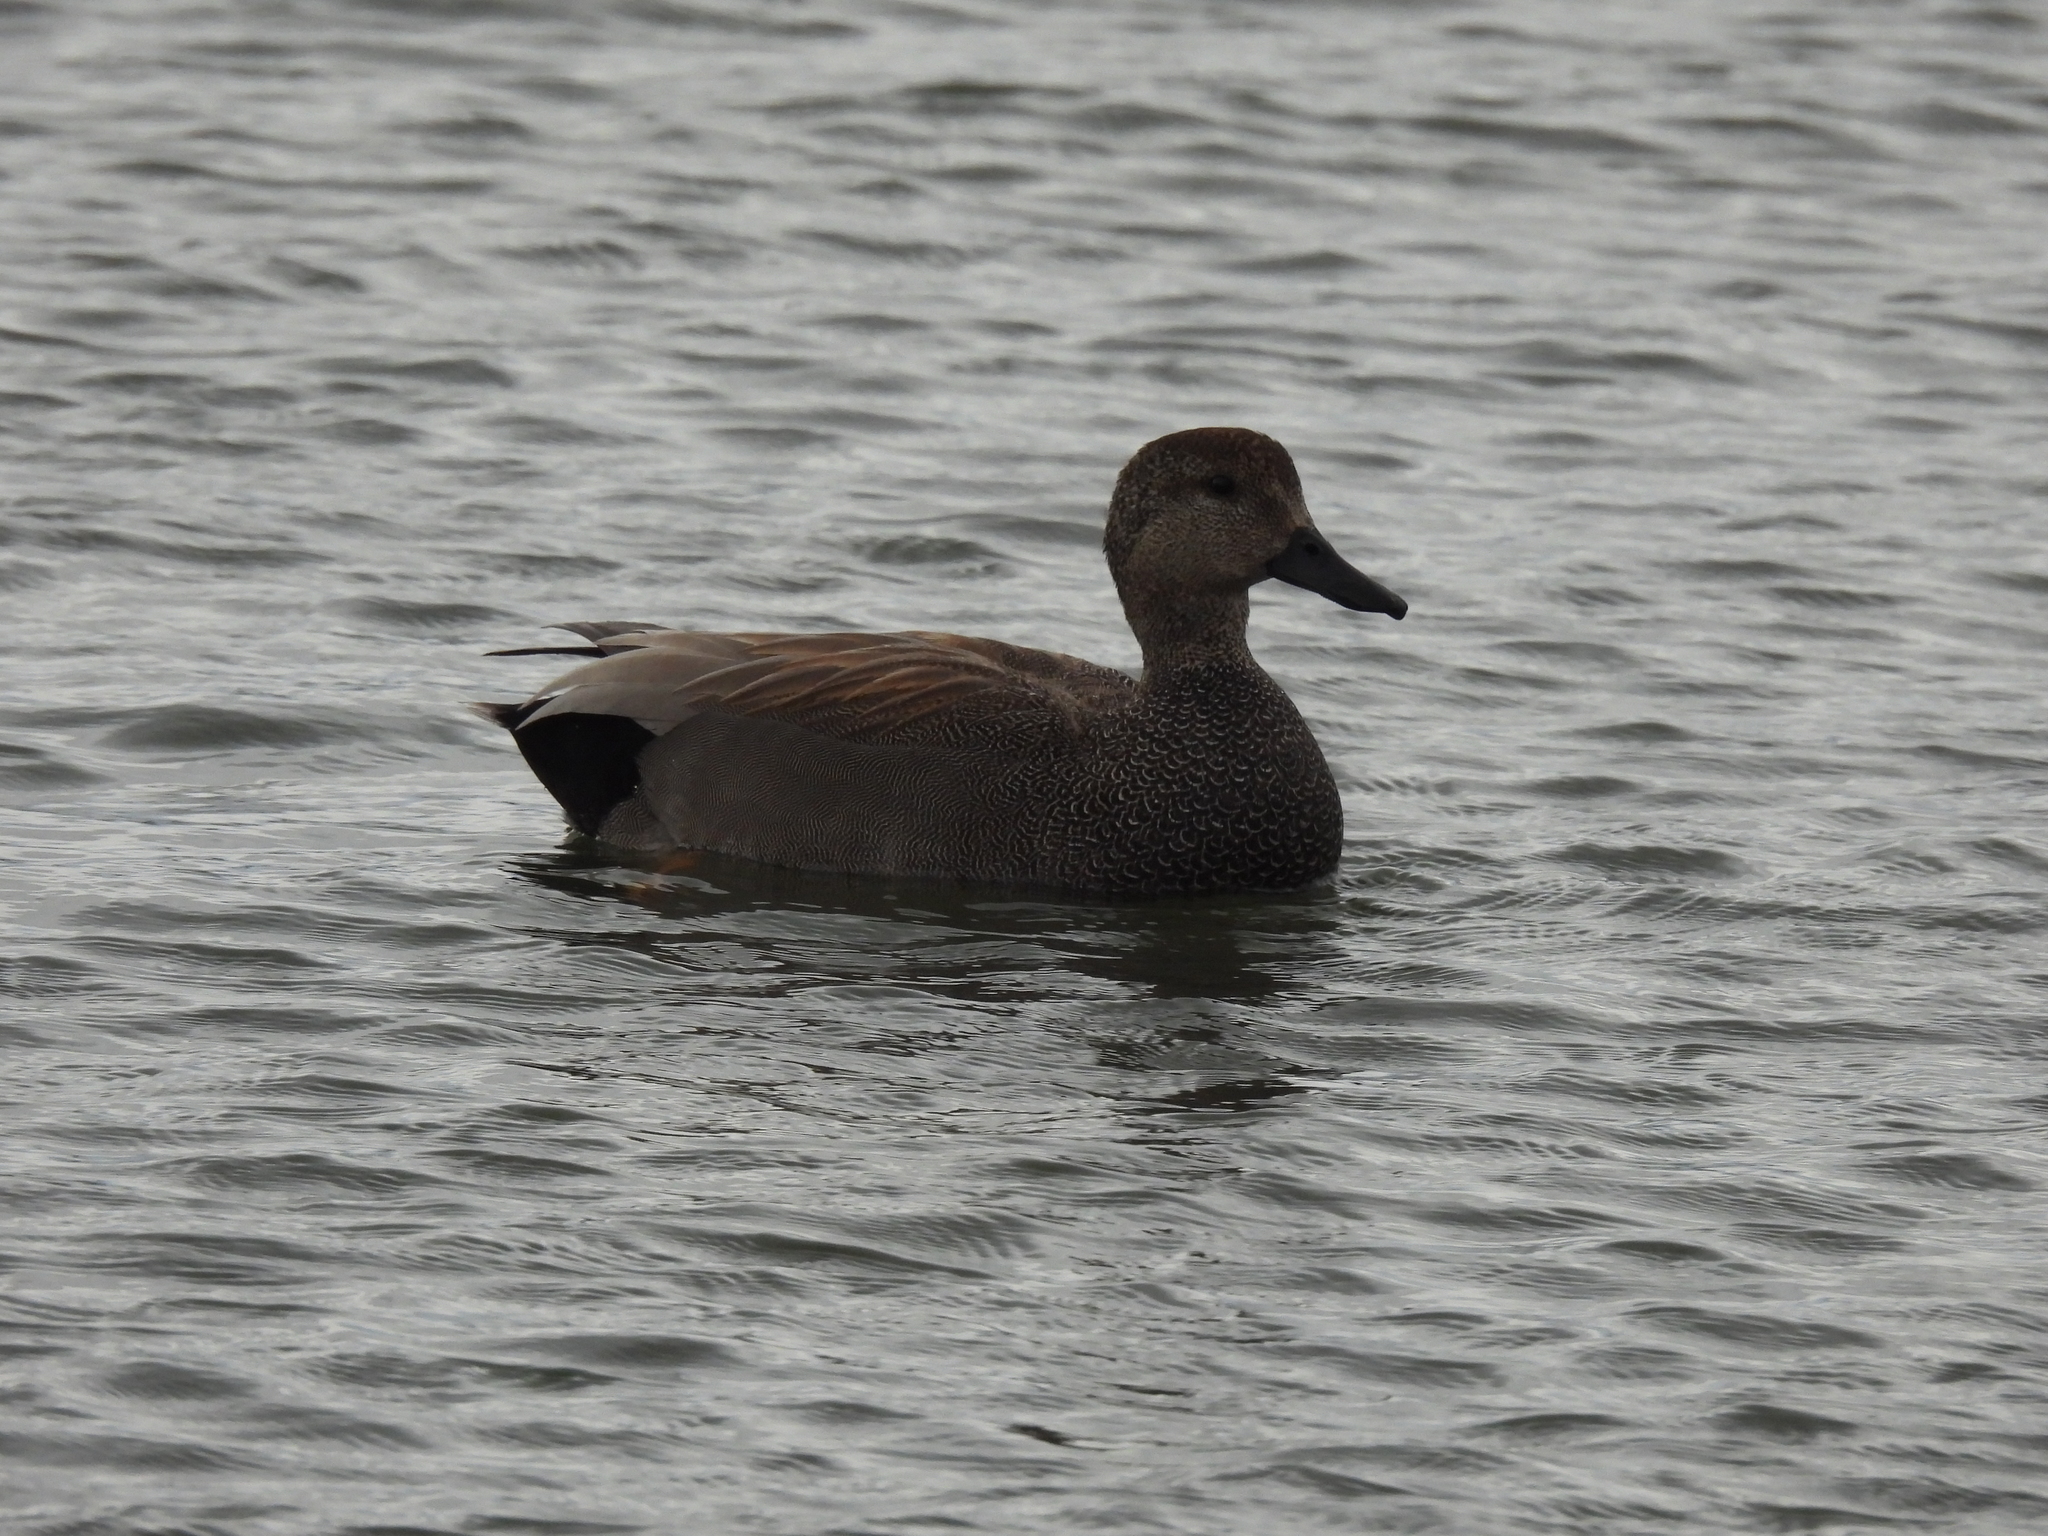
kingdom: Animalia
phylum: Chordata
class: Aves
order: Anseriformes
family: Anatidae
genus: Mareca
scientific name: Mareca strepera
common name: Gadwall
